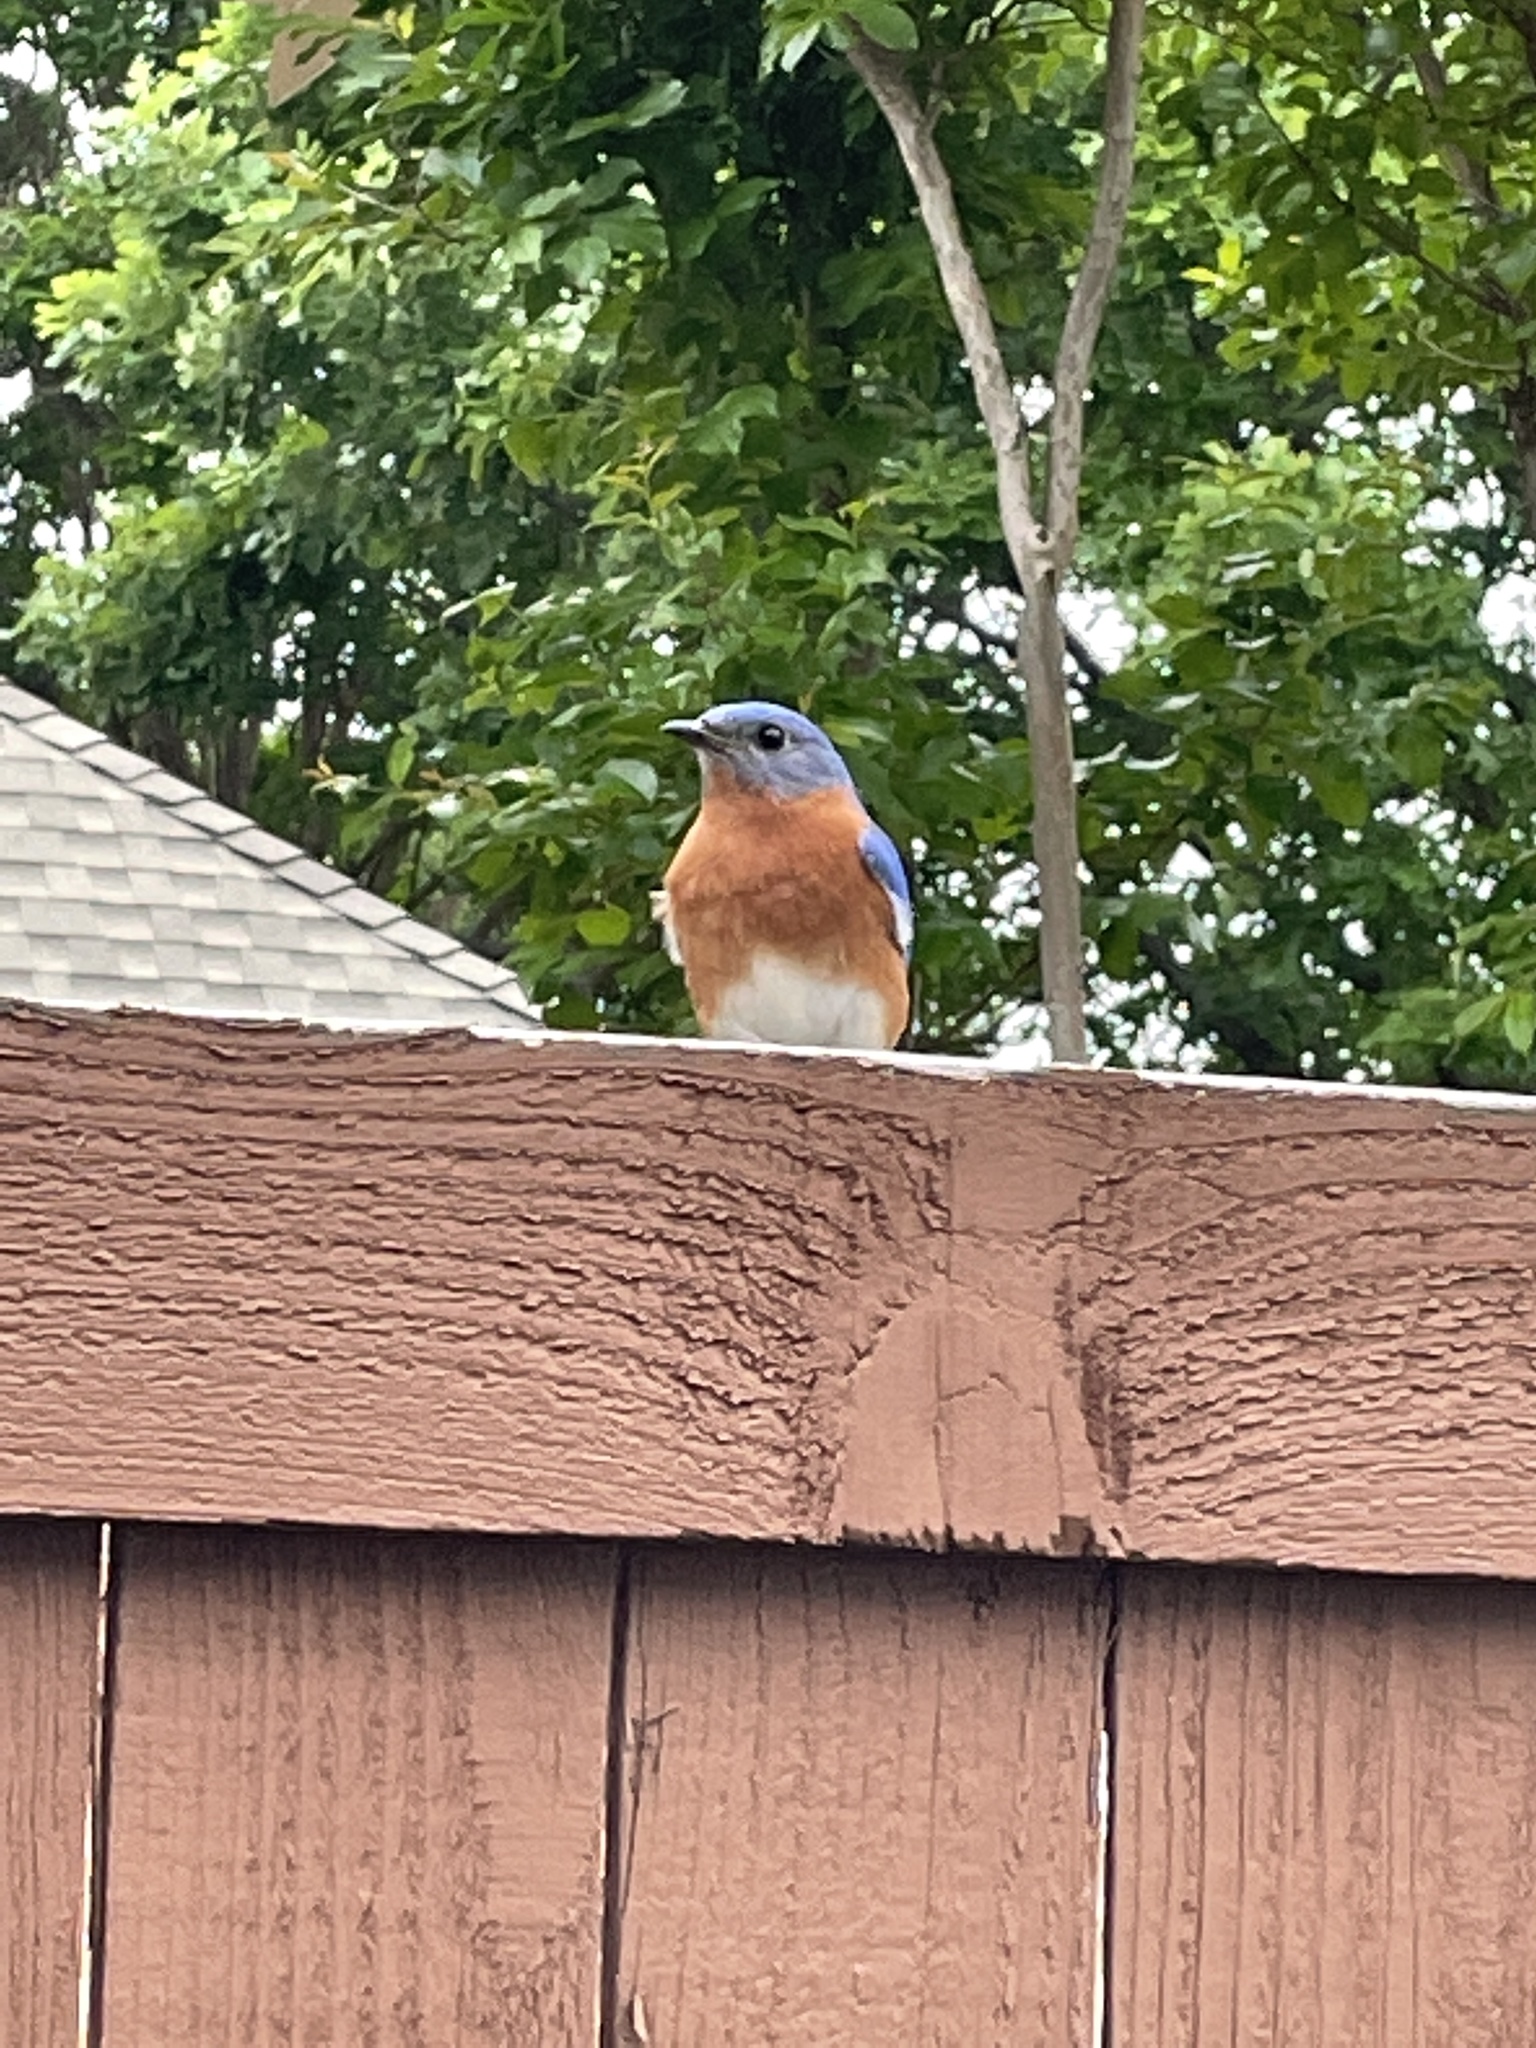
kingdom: Animalia
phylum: Chordata
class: Aves
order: Passeriformes
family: Turdidae
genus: Sialia
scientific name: Sialia sialis
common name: Eastern bluebird
